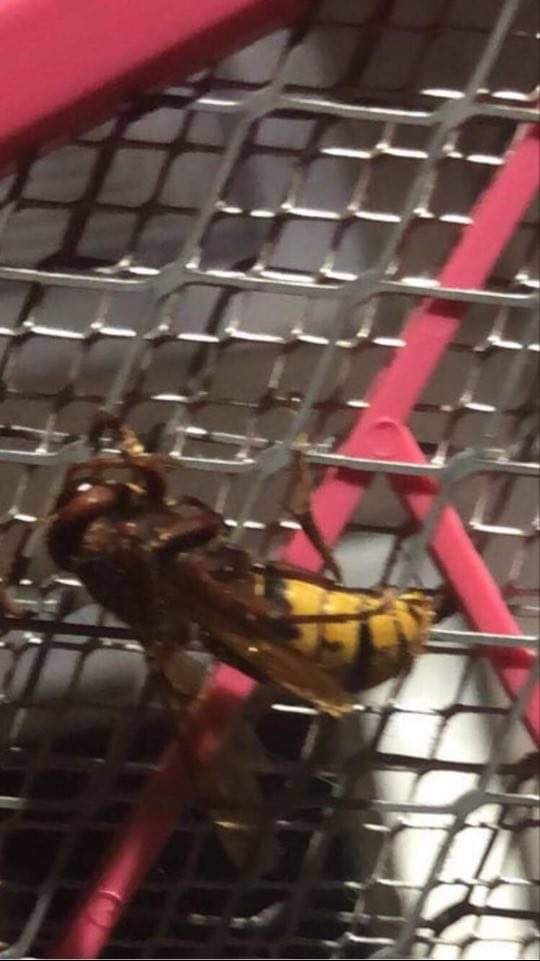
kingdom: Animalia
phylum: Arthropoda
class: Insecta
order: Hymenoptera
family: Vespidae
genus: Vespa
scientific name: Vespa crabro
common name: Hornet
